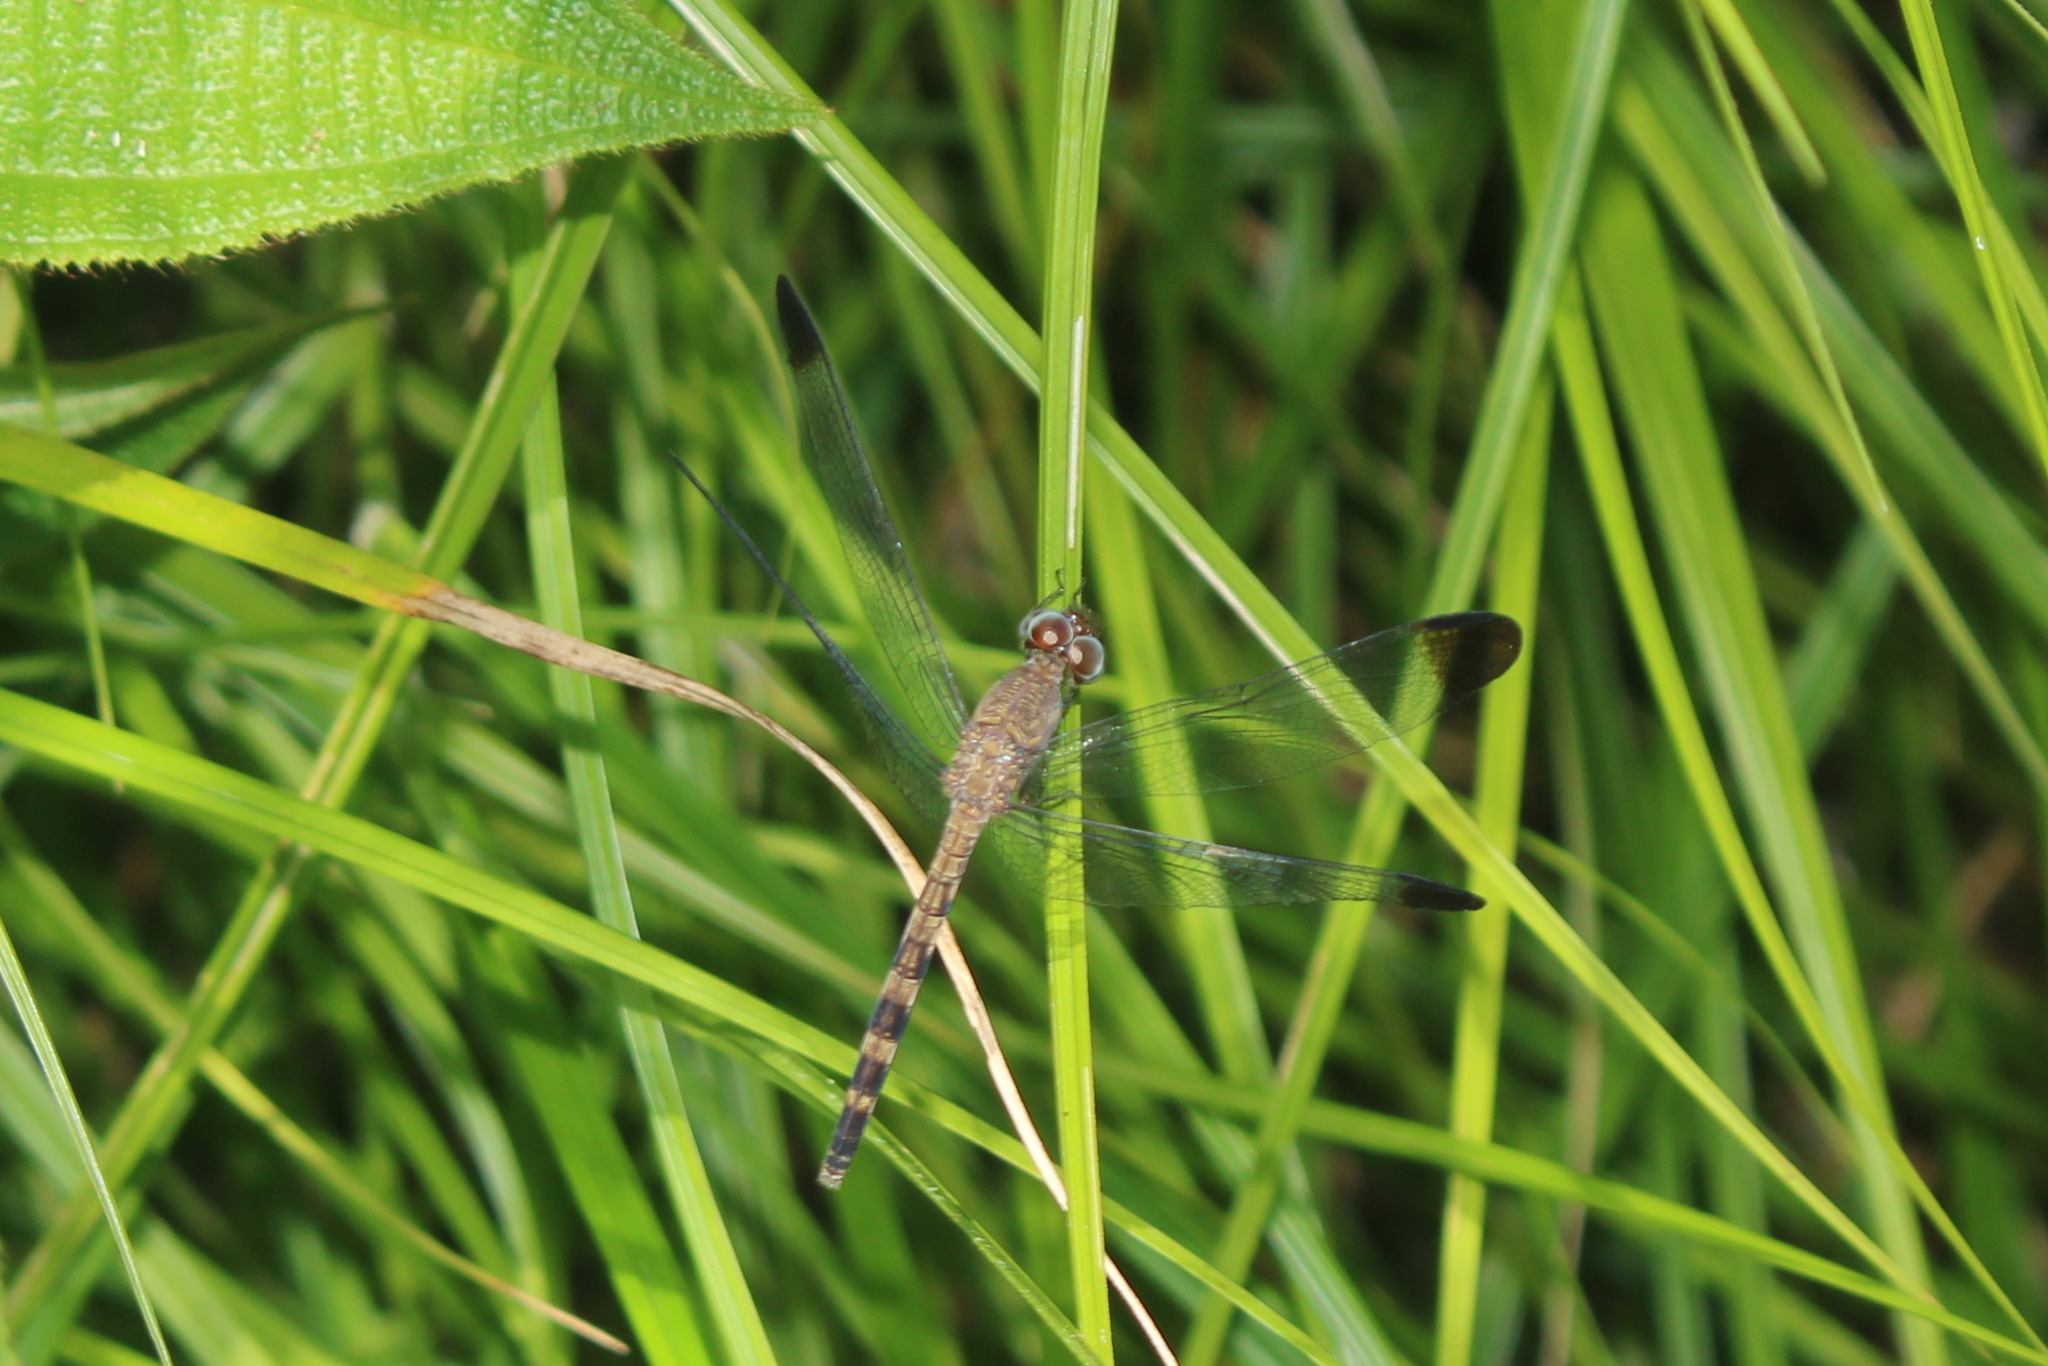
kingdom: Animalia
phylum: Arthropoda
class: Insecta
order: Odonata
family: Libellulidae
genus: Uracis
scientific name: Uracis imbuta
